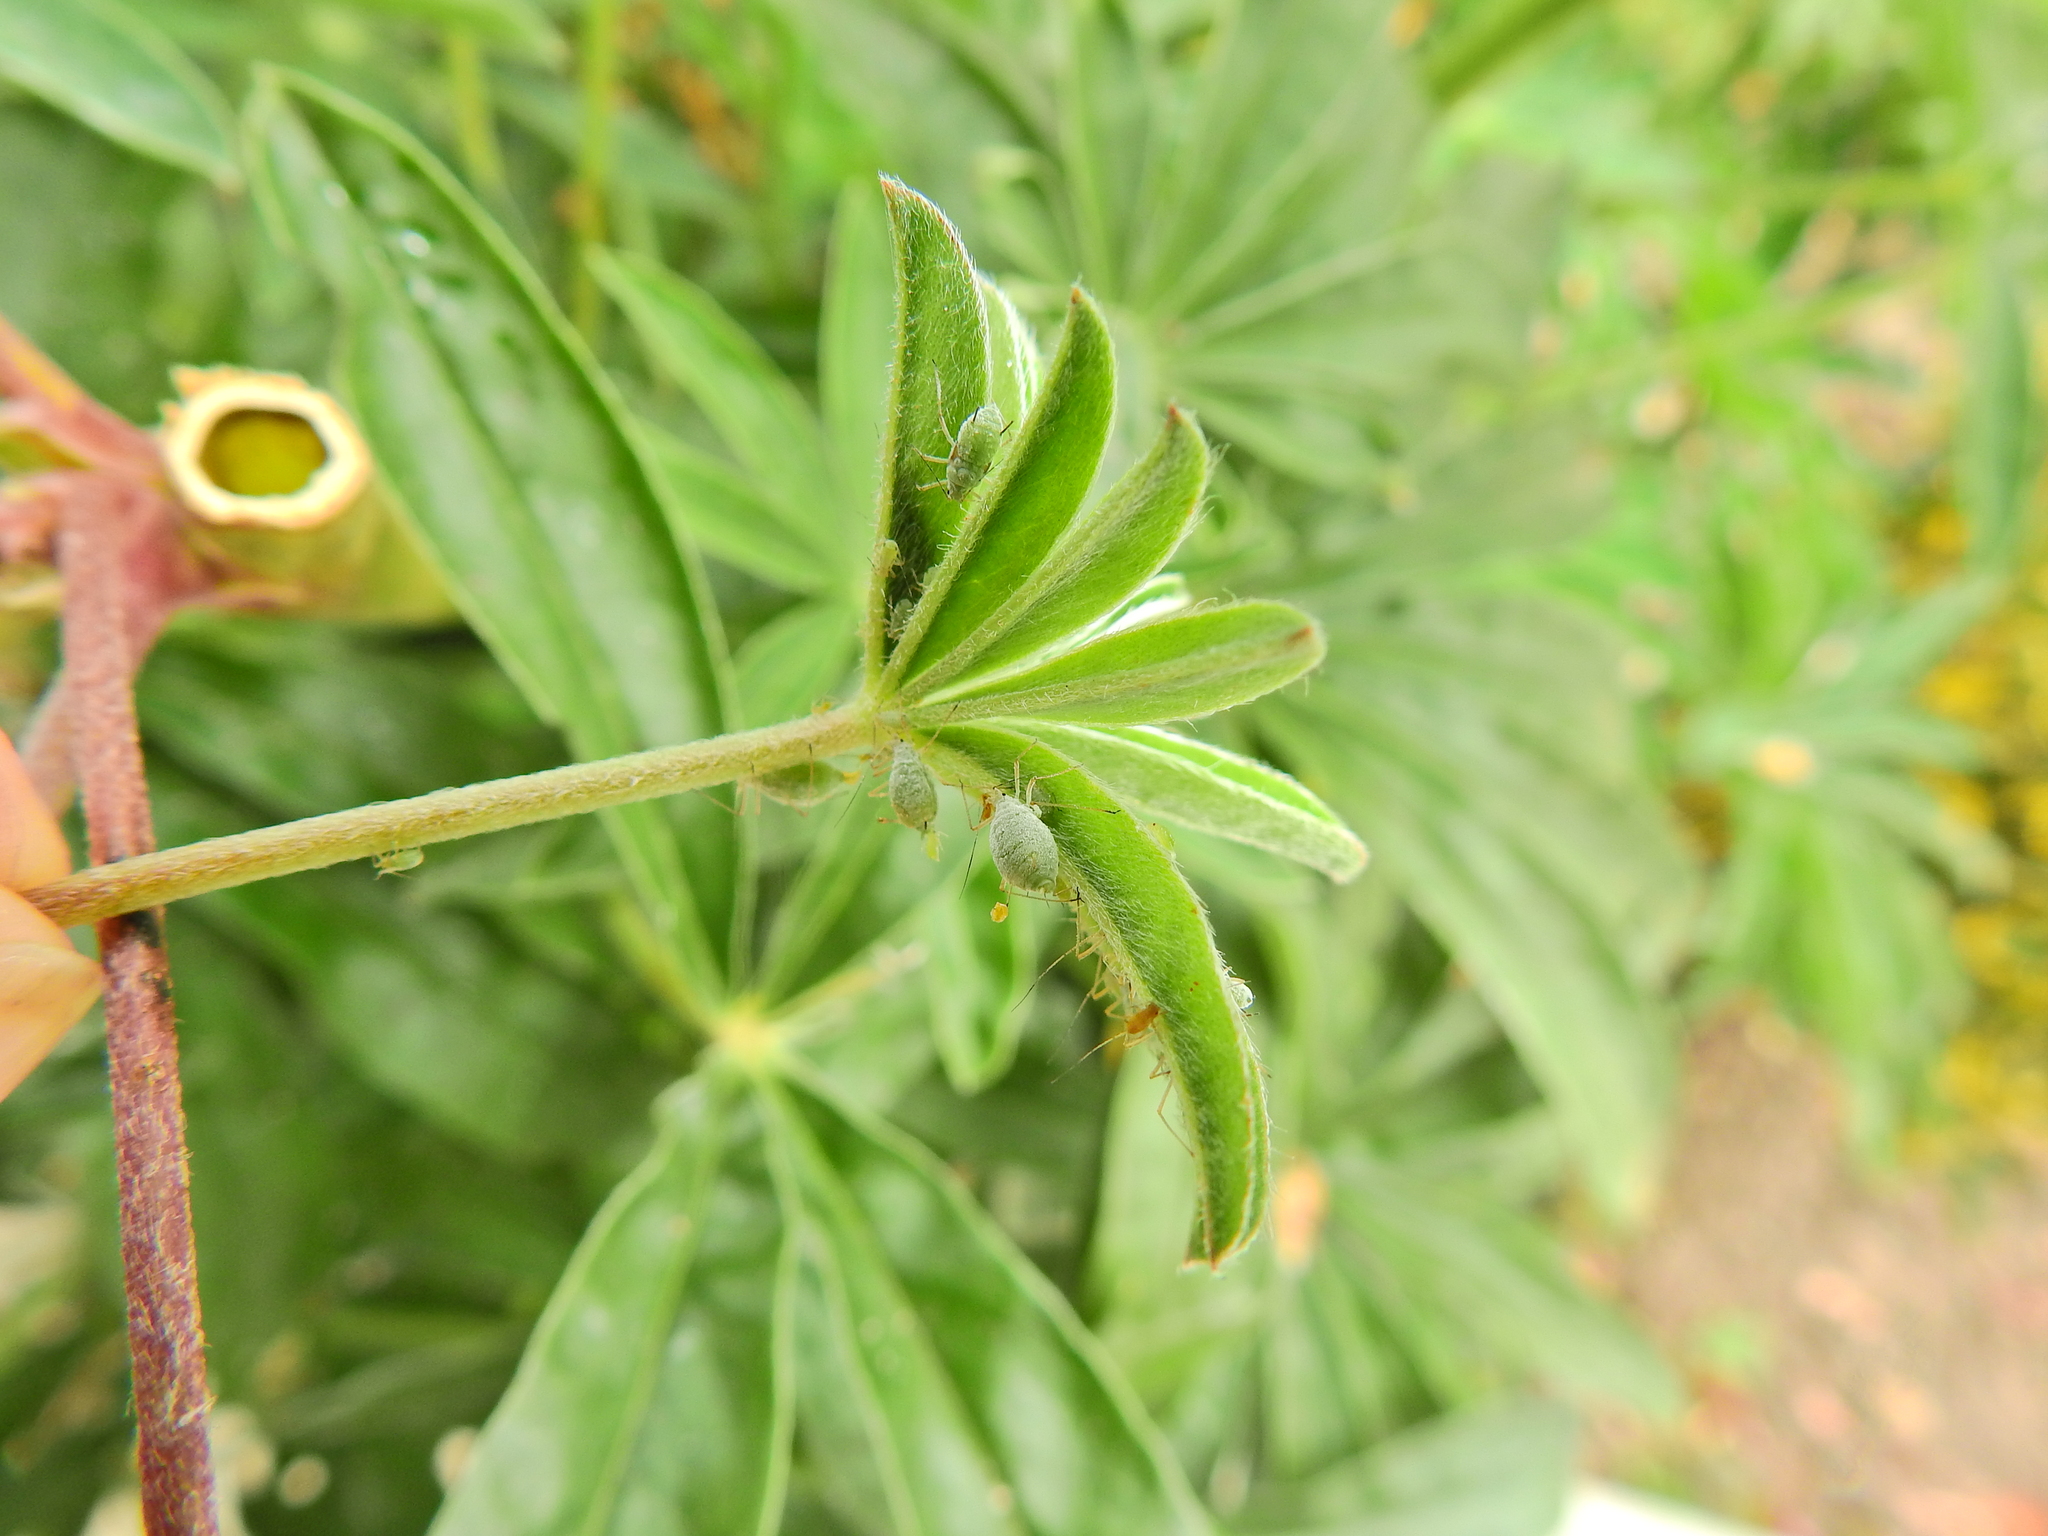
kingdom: Animalia
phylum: Arthropoda
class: Insecta
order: Hemiptera
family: Aphididae
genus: Macrosiphum
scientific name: Macrosiphum albifrons
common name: Lupine aphid
